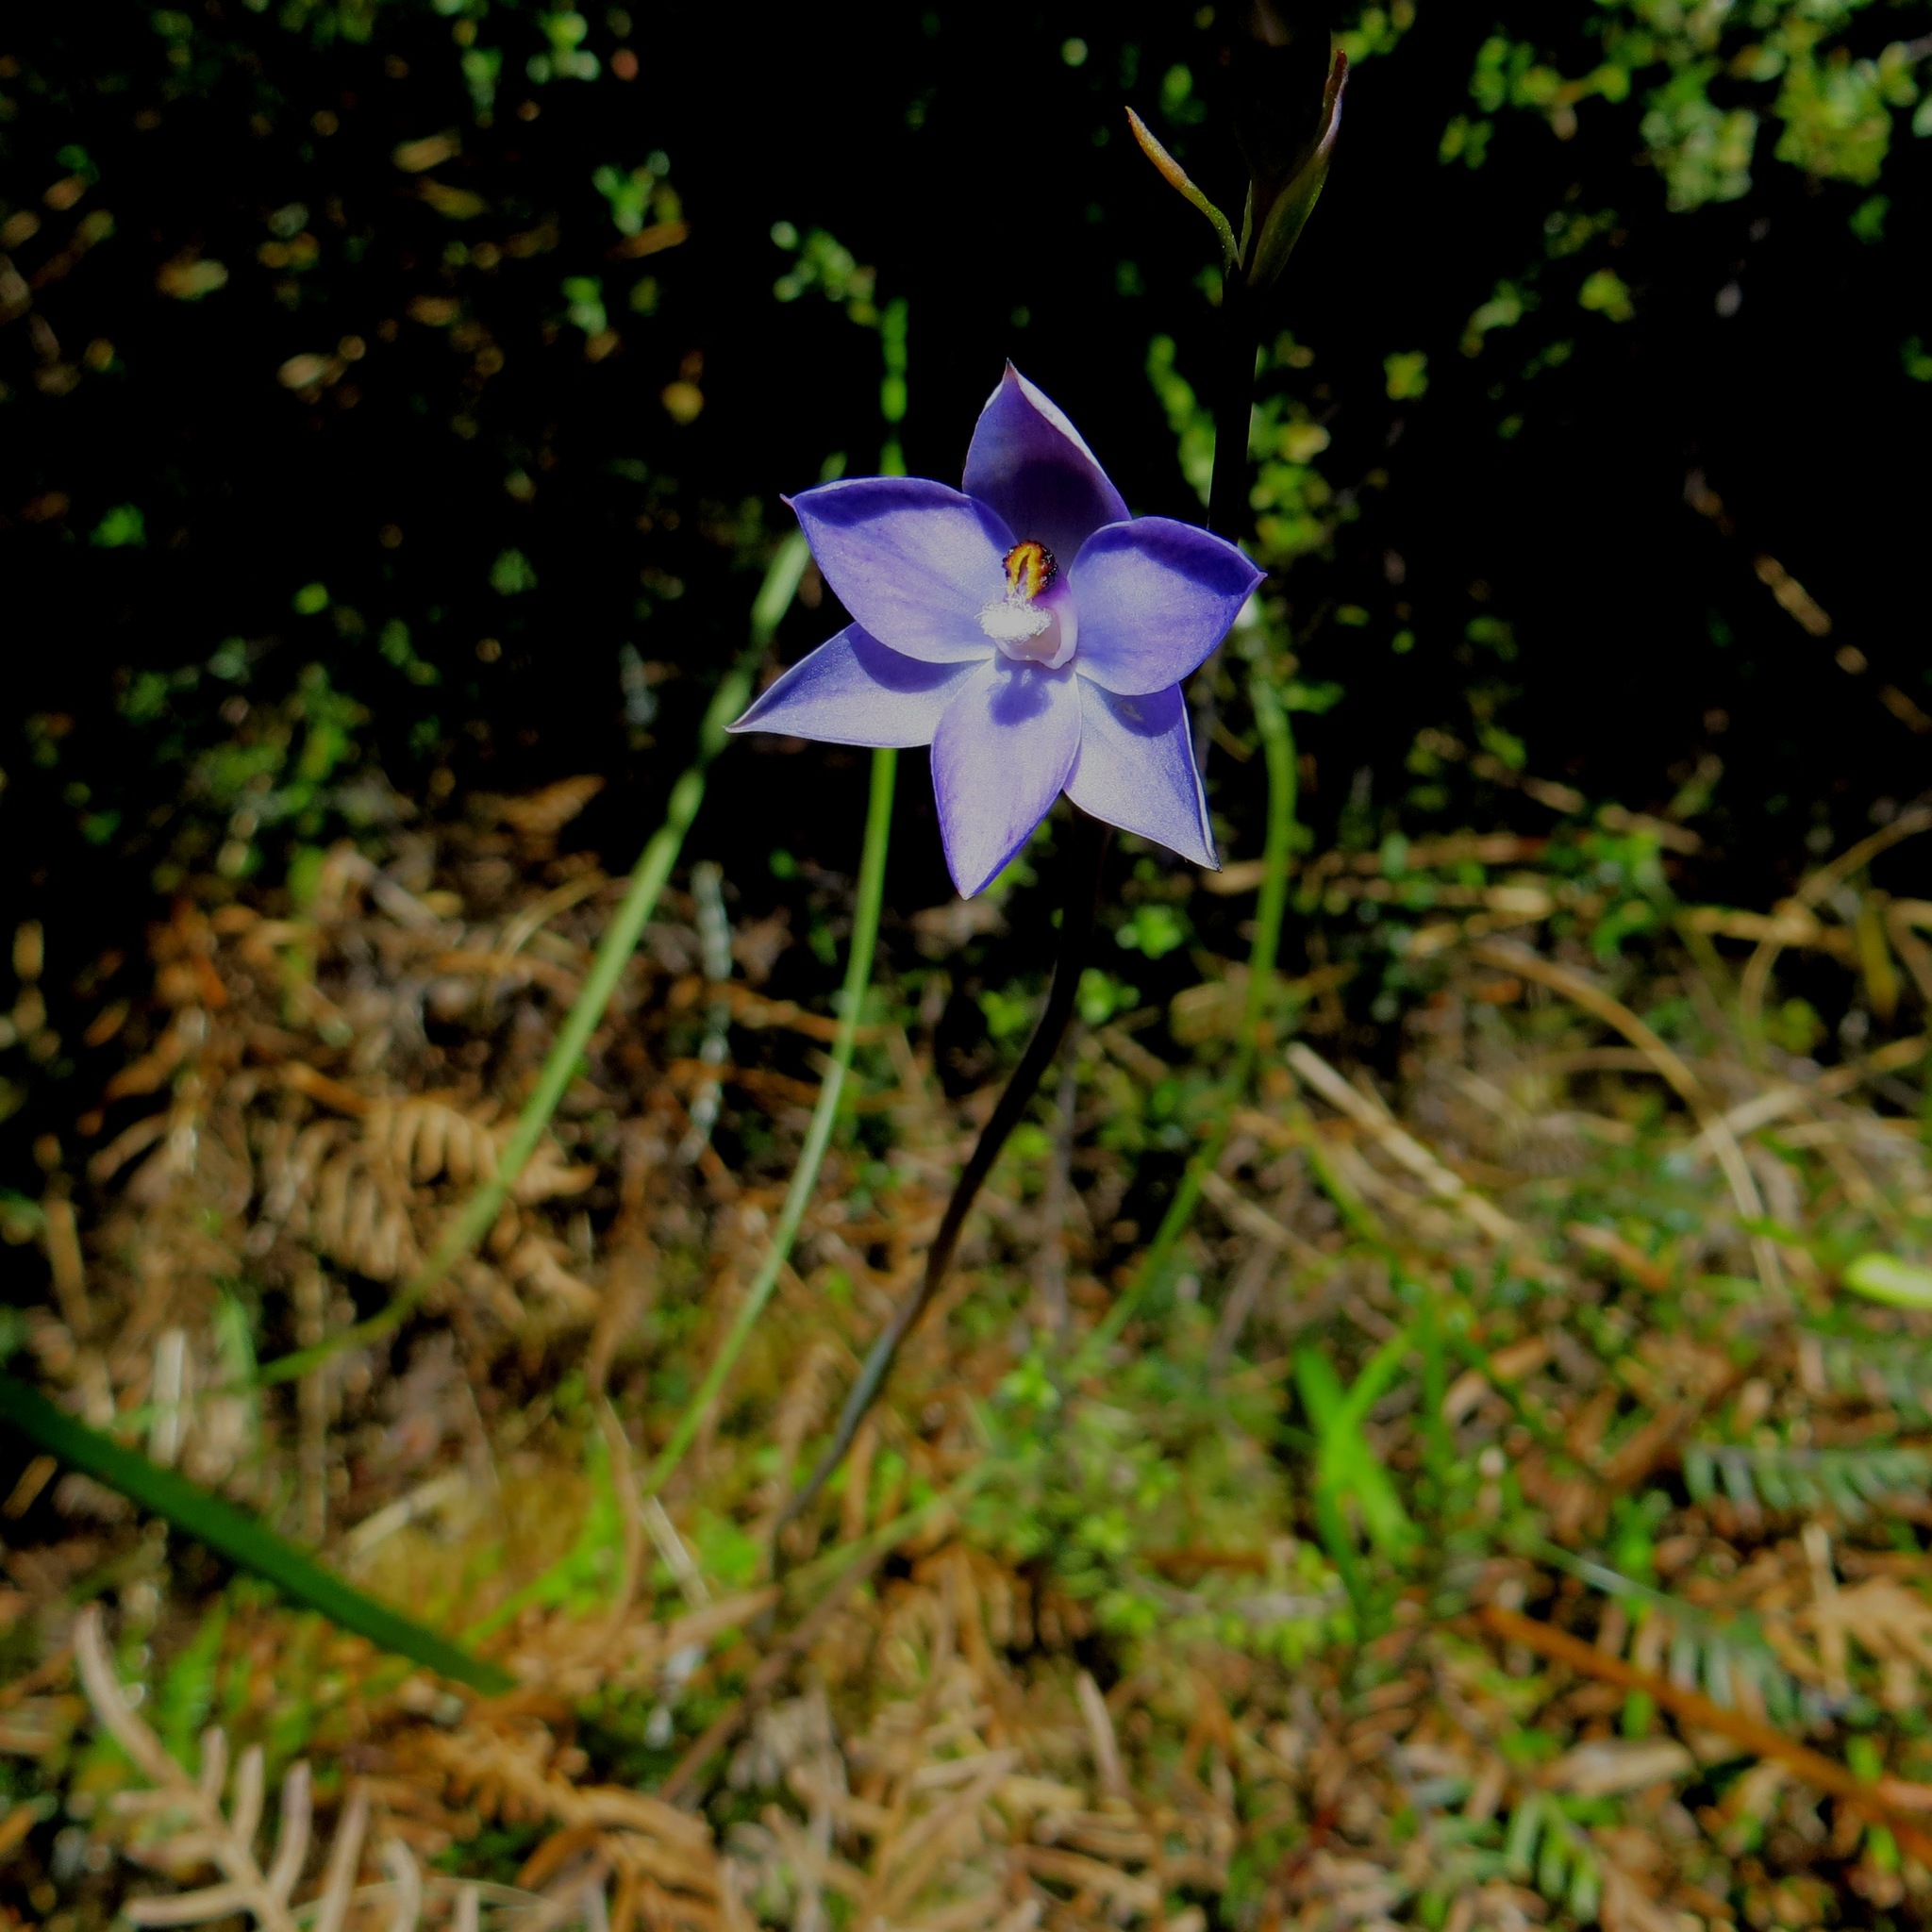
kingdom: Plantae
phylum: Tracheophyta
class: Liliopsida
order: Asparagales
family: Orchidaceae
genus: Thelymitra
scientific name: Thelymitra nervosa
